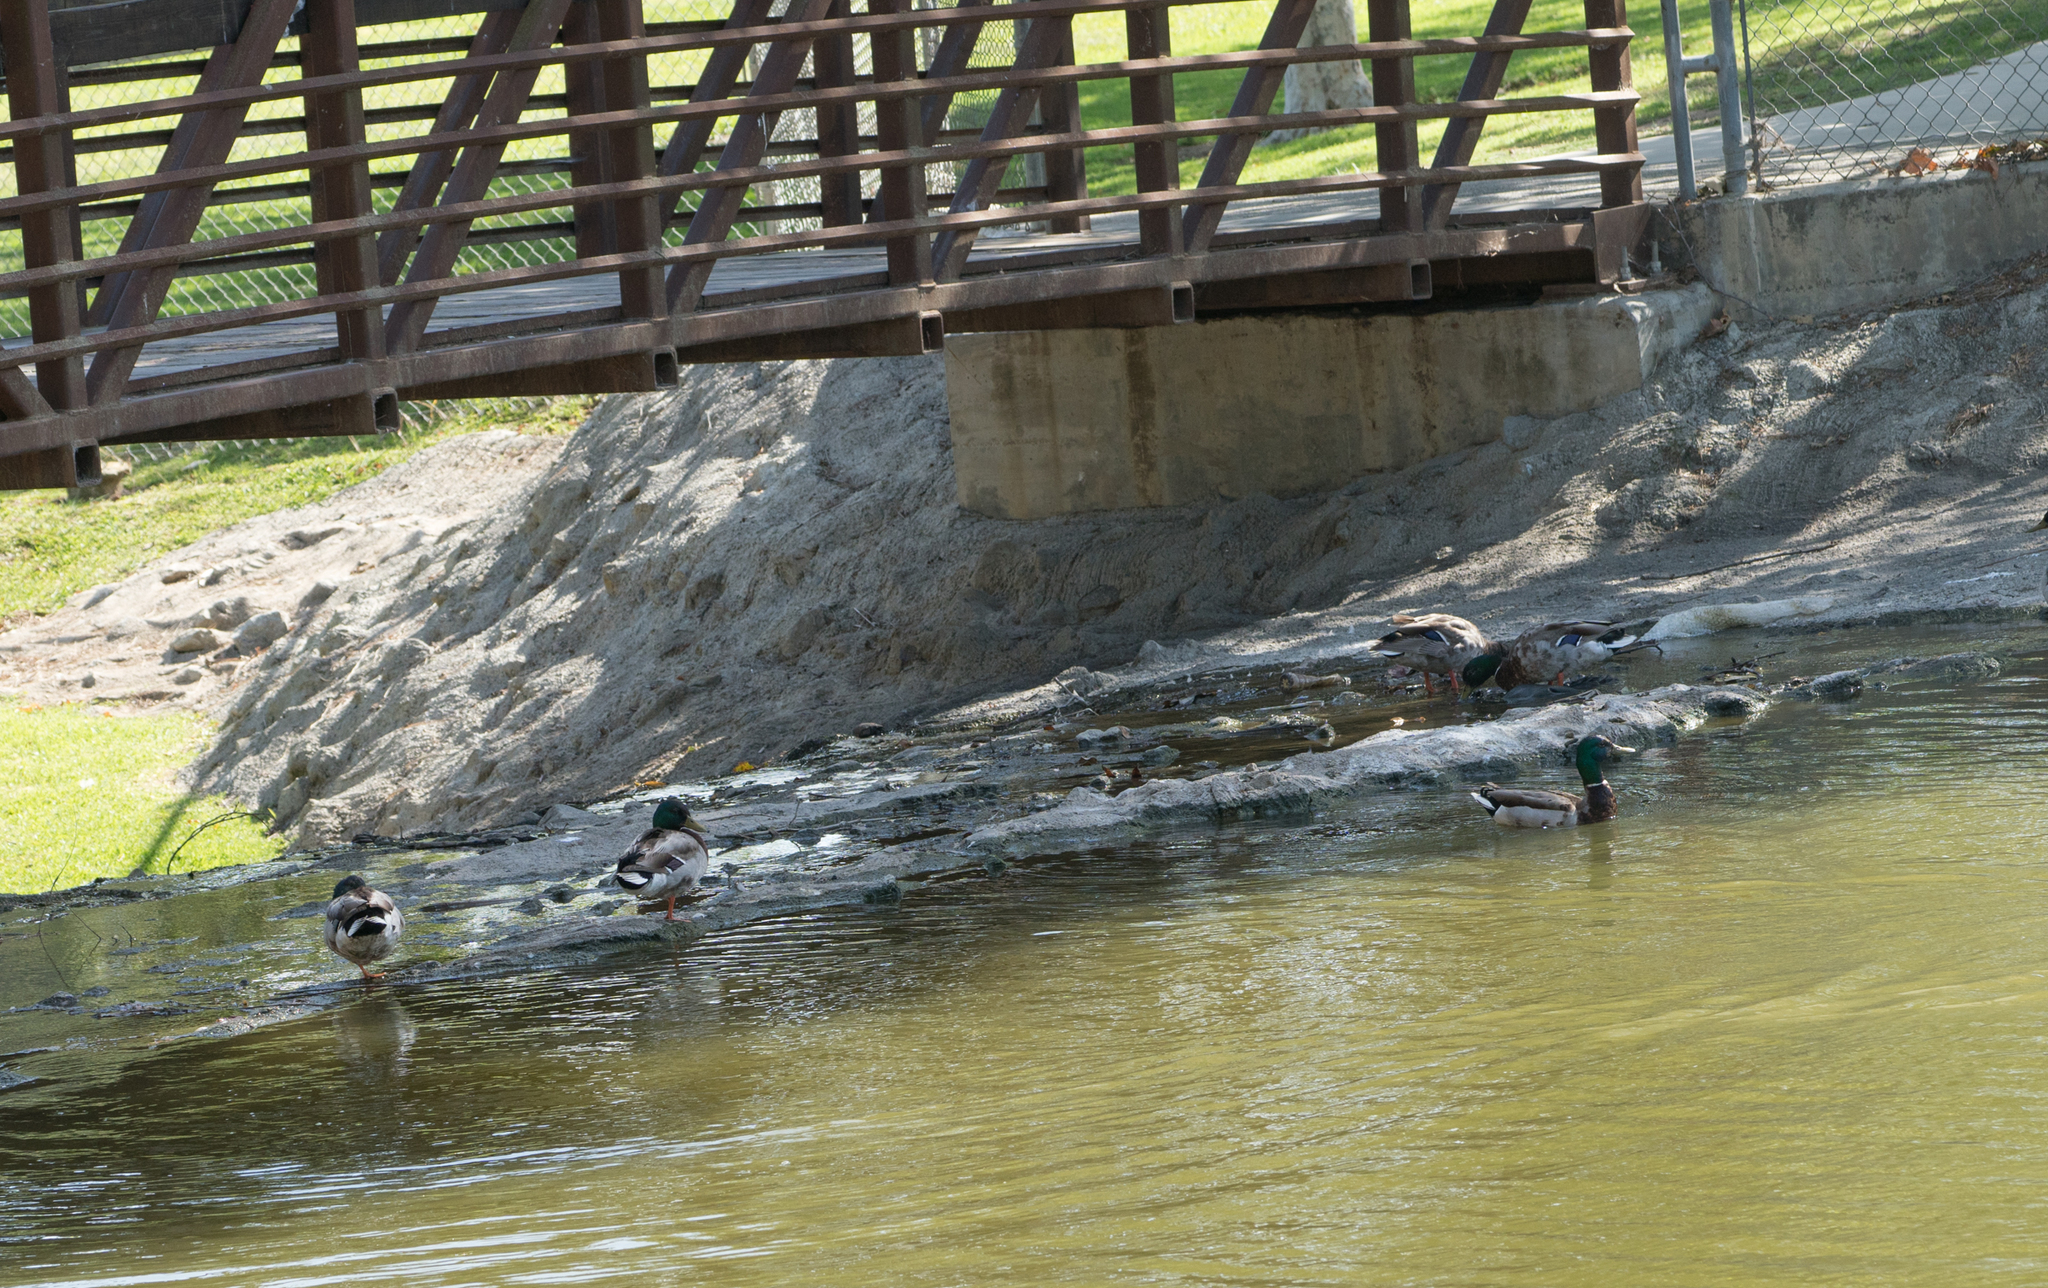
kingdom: Animalia
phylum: Chordata
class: Aves
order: Anseriformes
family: Anatidae
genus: Anas
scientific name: Anas platyrhynchos
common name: Mallard
